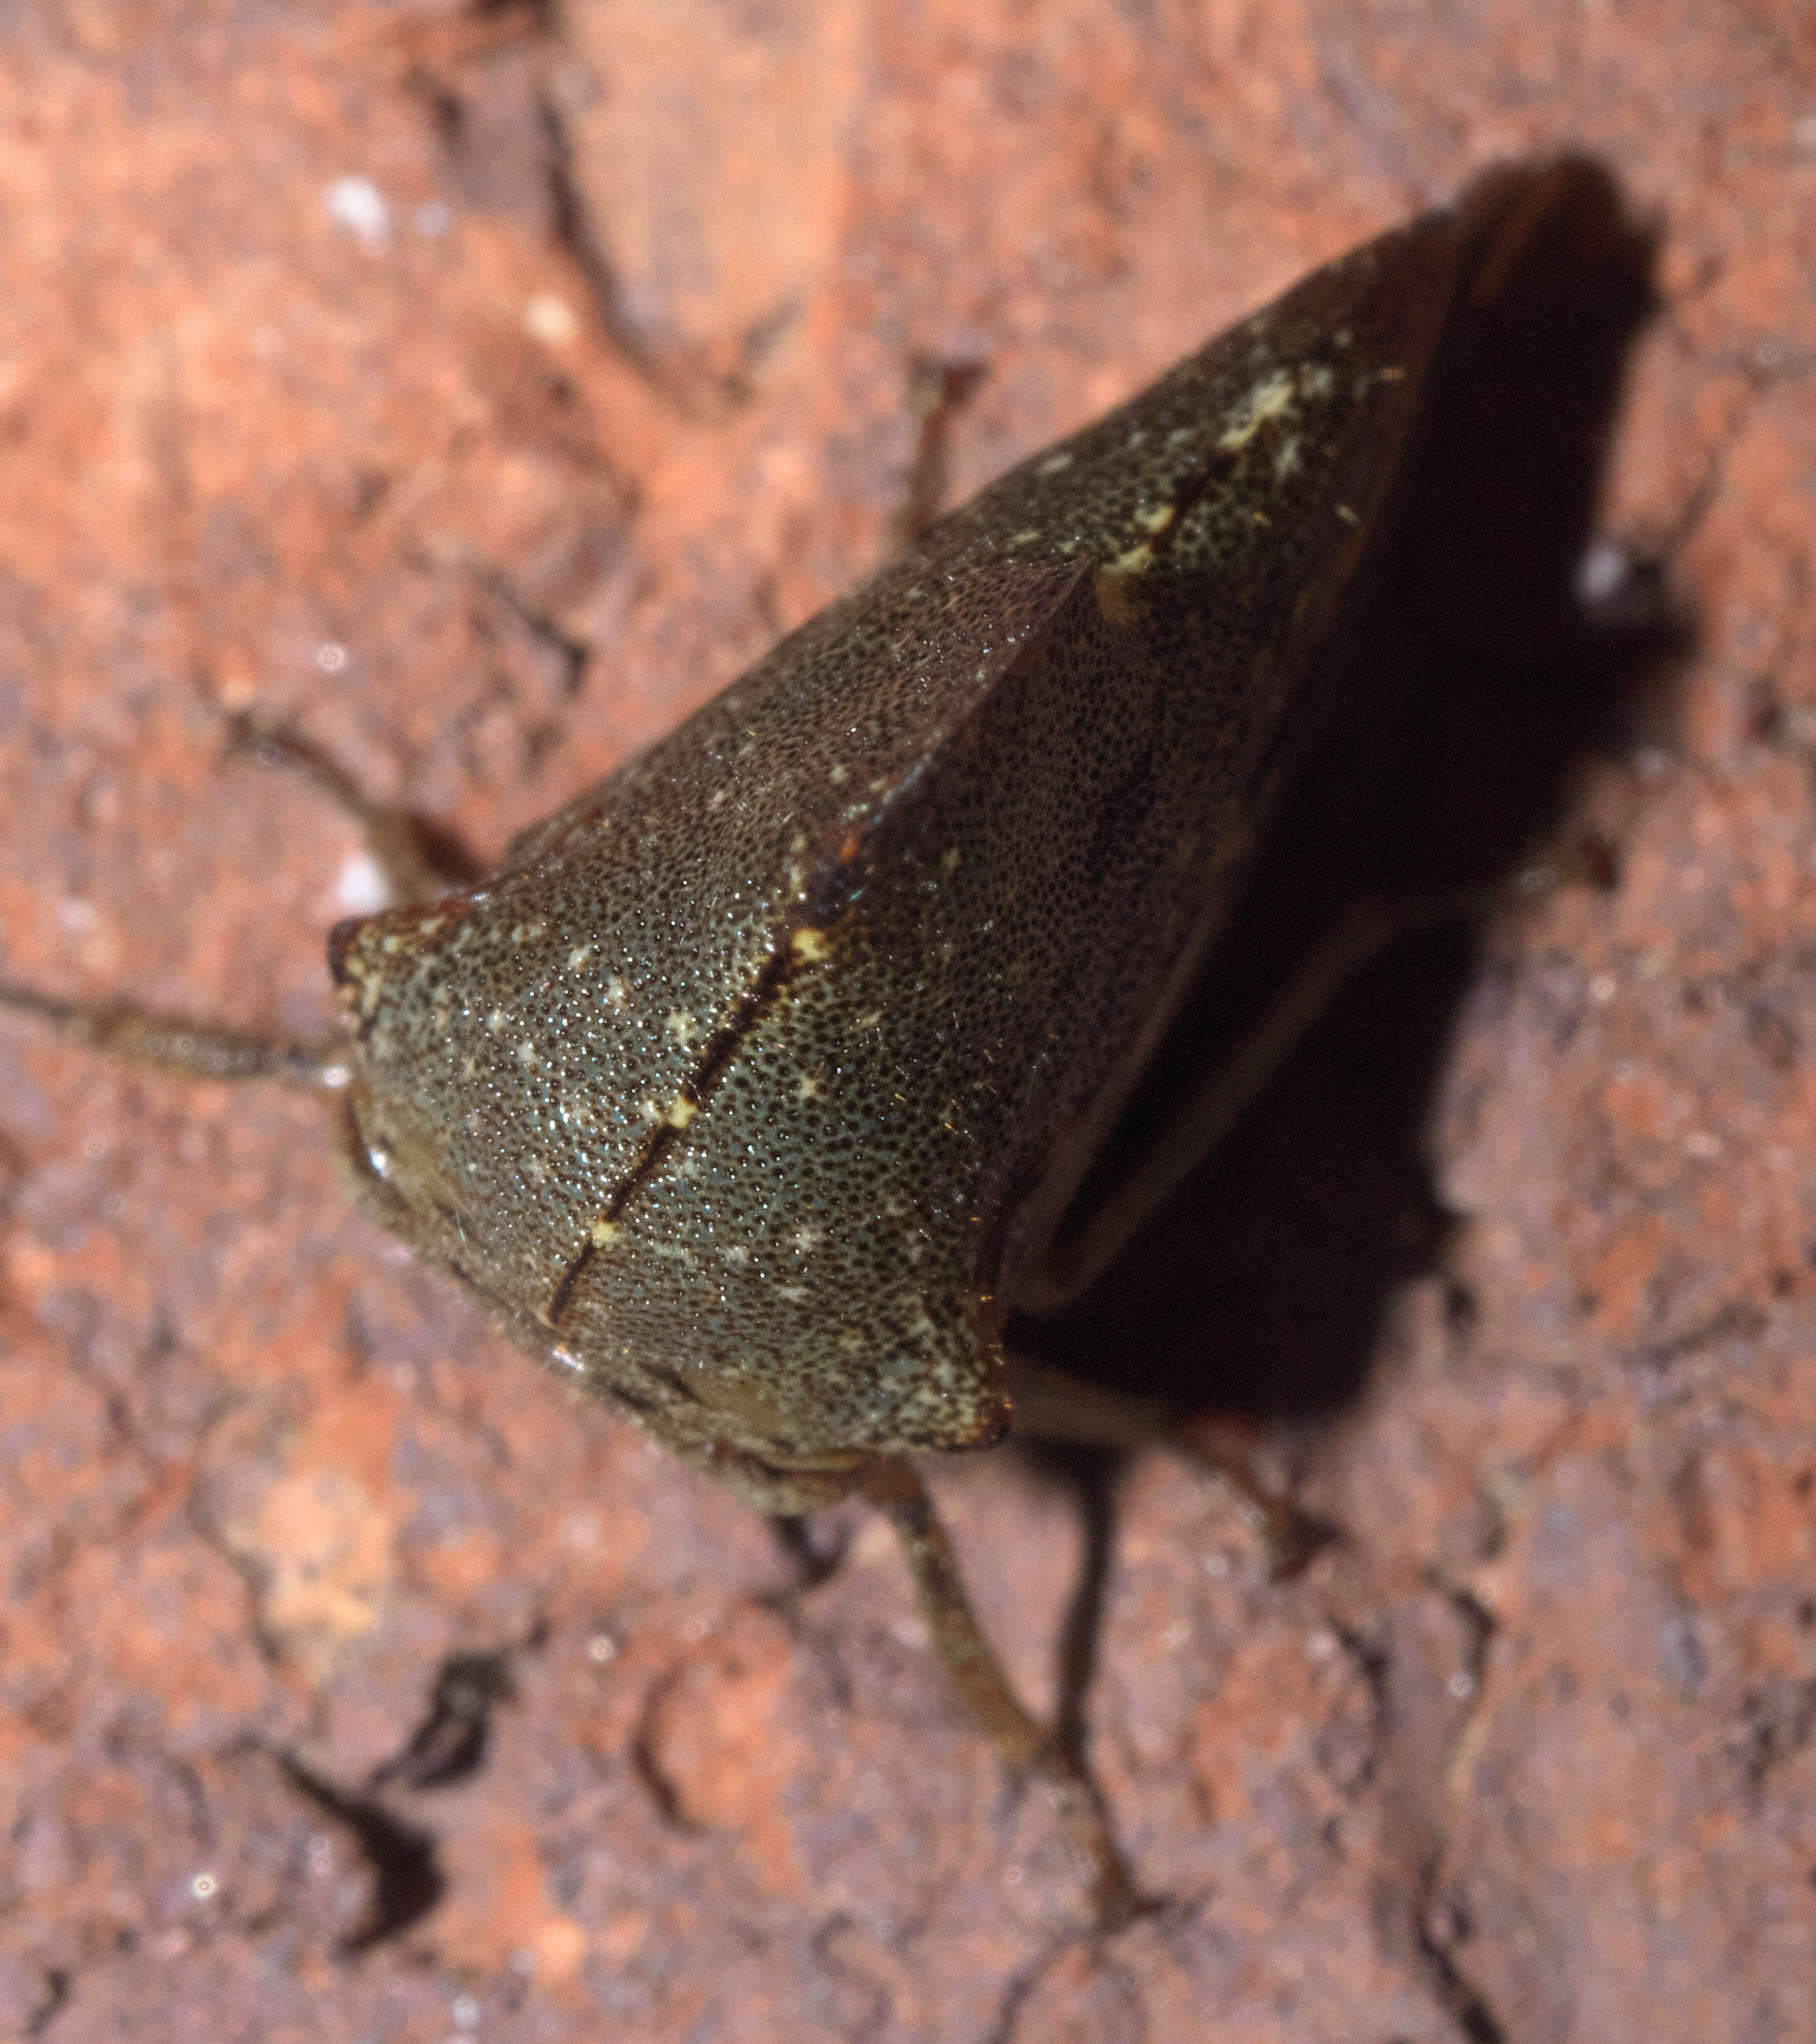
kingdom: Animalia
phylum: Arthropoda
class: Insecta
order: Hemiptera
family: Membracidae
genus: Telamona
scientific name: Telamona monticola
